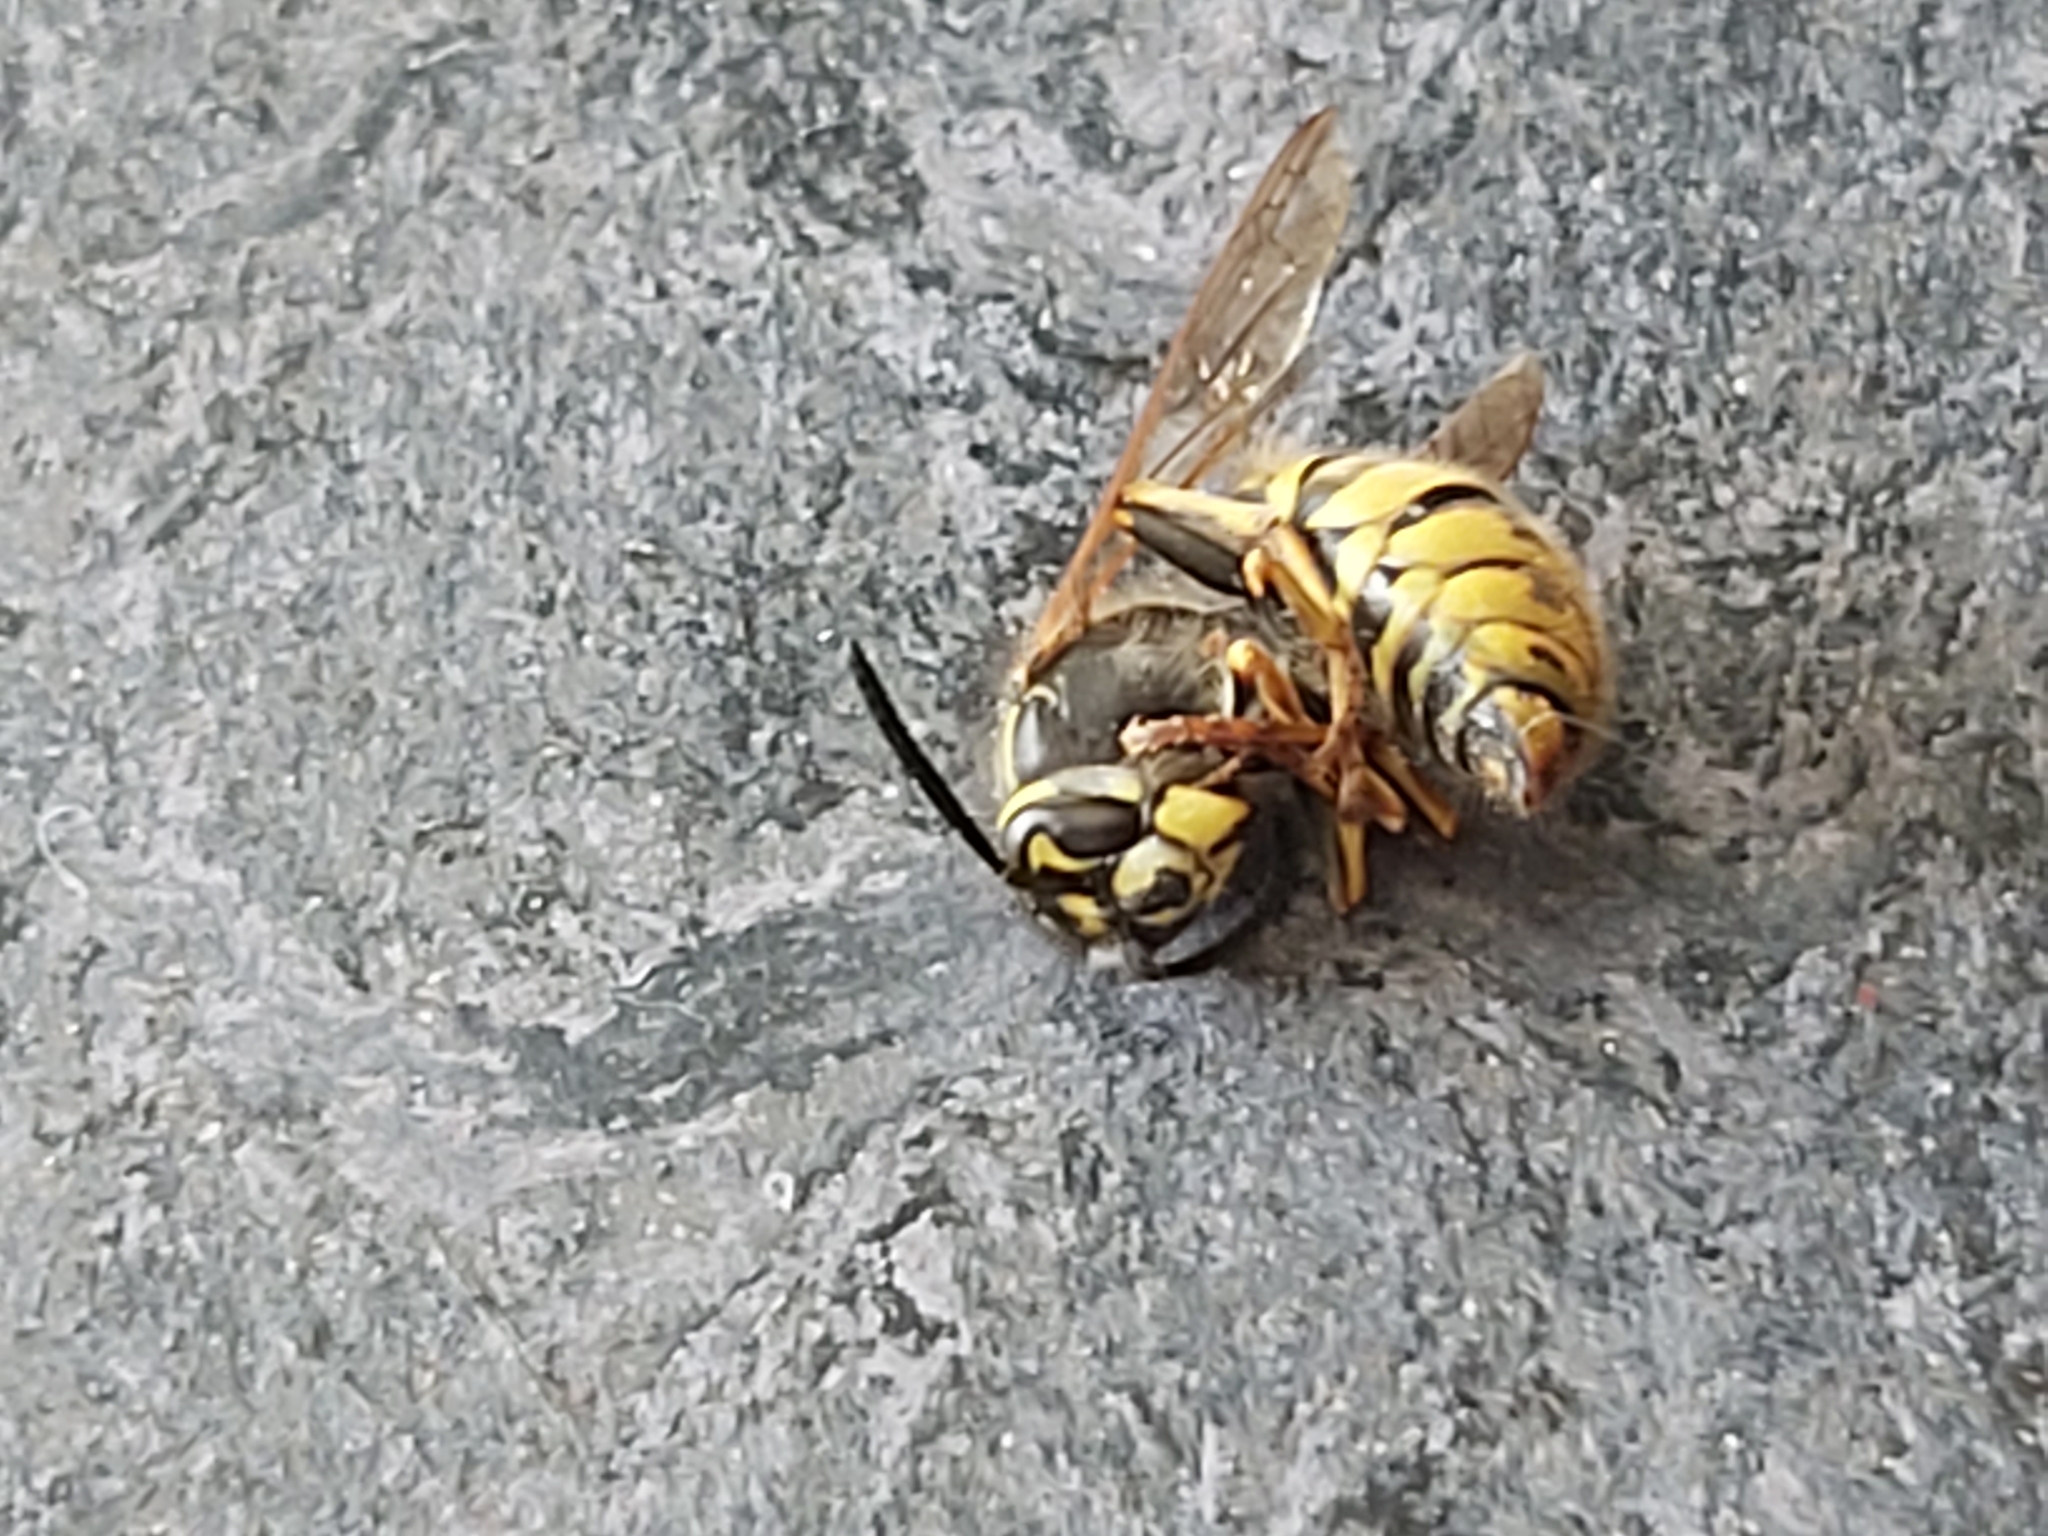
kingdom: Animalia
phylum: Arthropoda
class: Insecta
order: Hymenoptera
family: Vespidae
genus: Vespula
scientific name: Vespula vulgaris
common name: Common wasp
